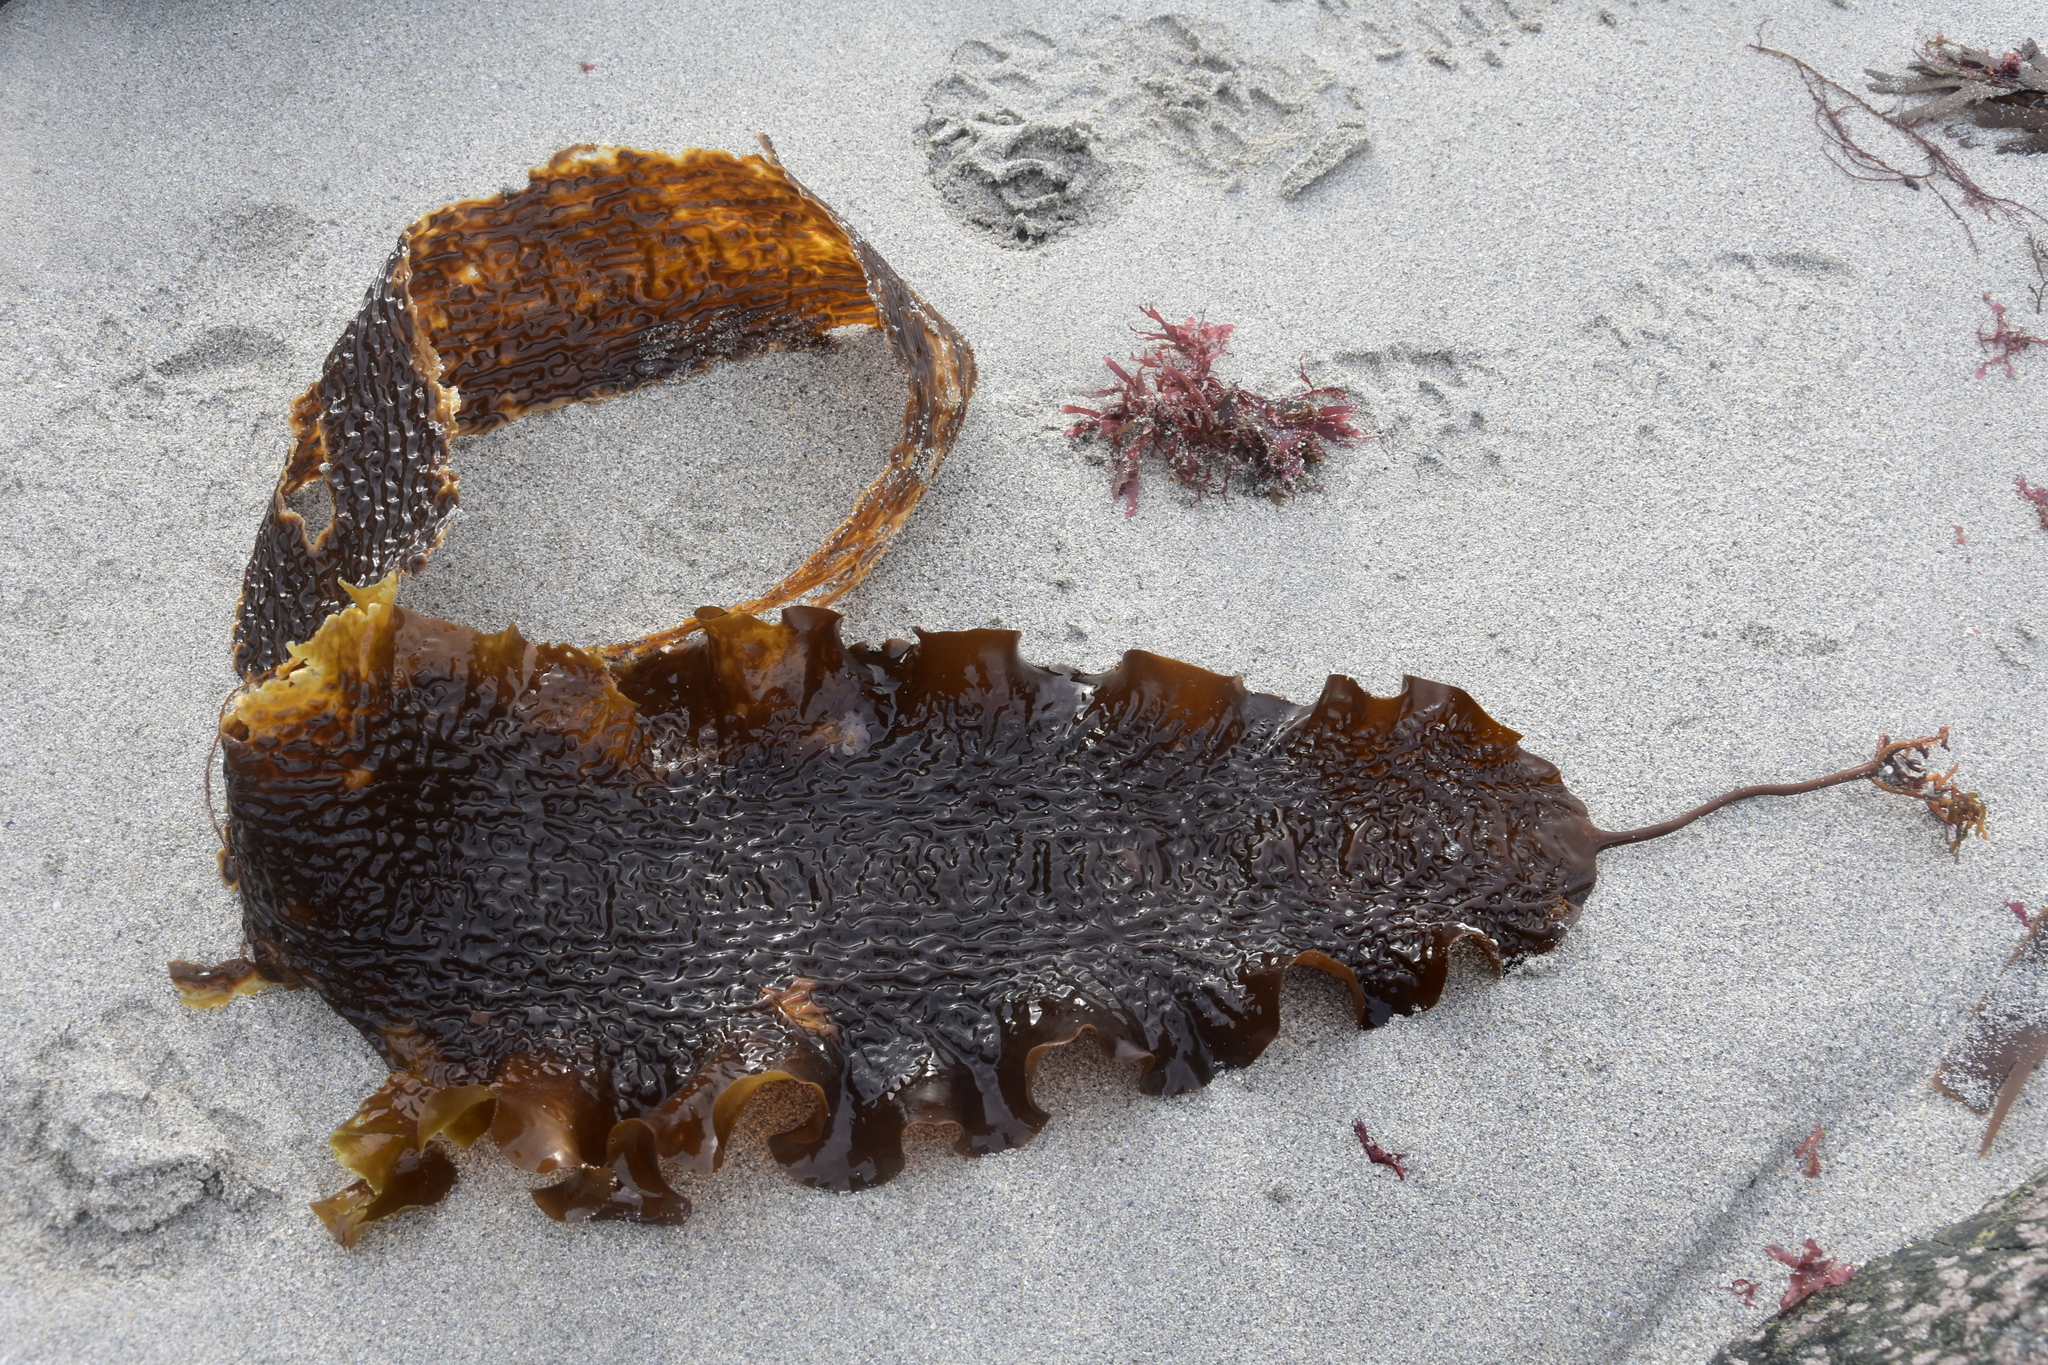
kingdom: Chromista
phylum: Ochrophyta
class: Phaeophyceae
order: Laminariales
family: Laminariaceae
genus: Saccharina
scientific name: Saccharina latissima
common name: Poor man's weather glass
